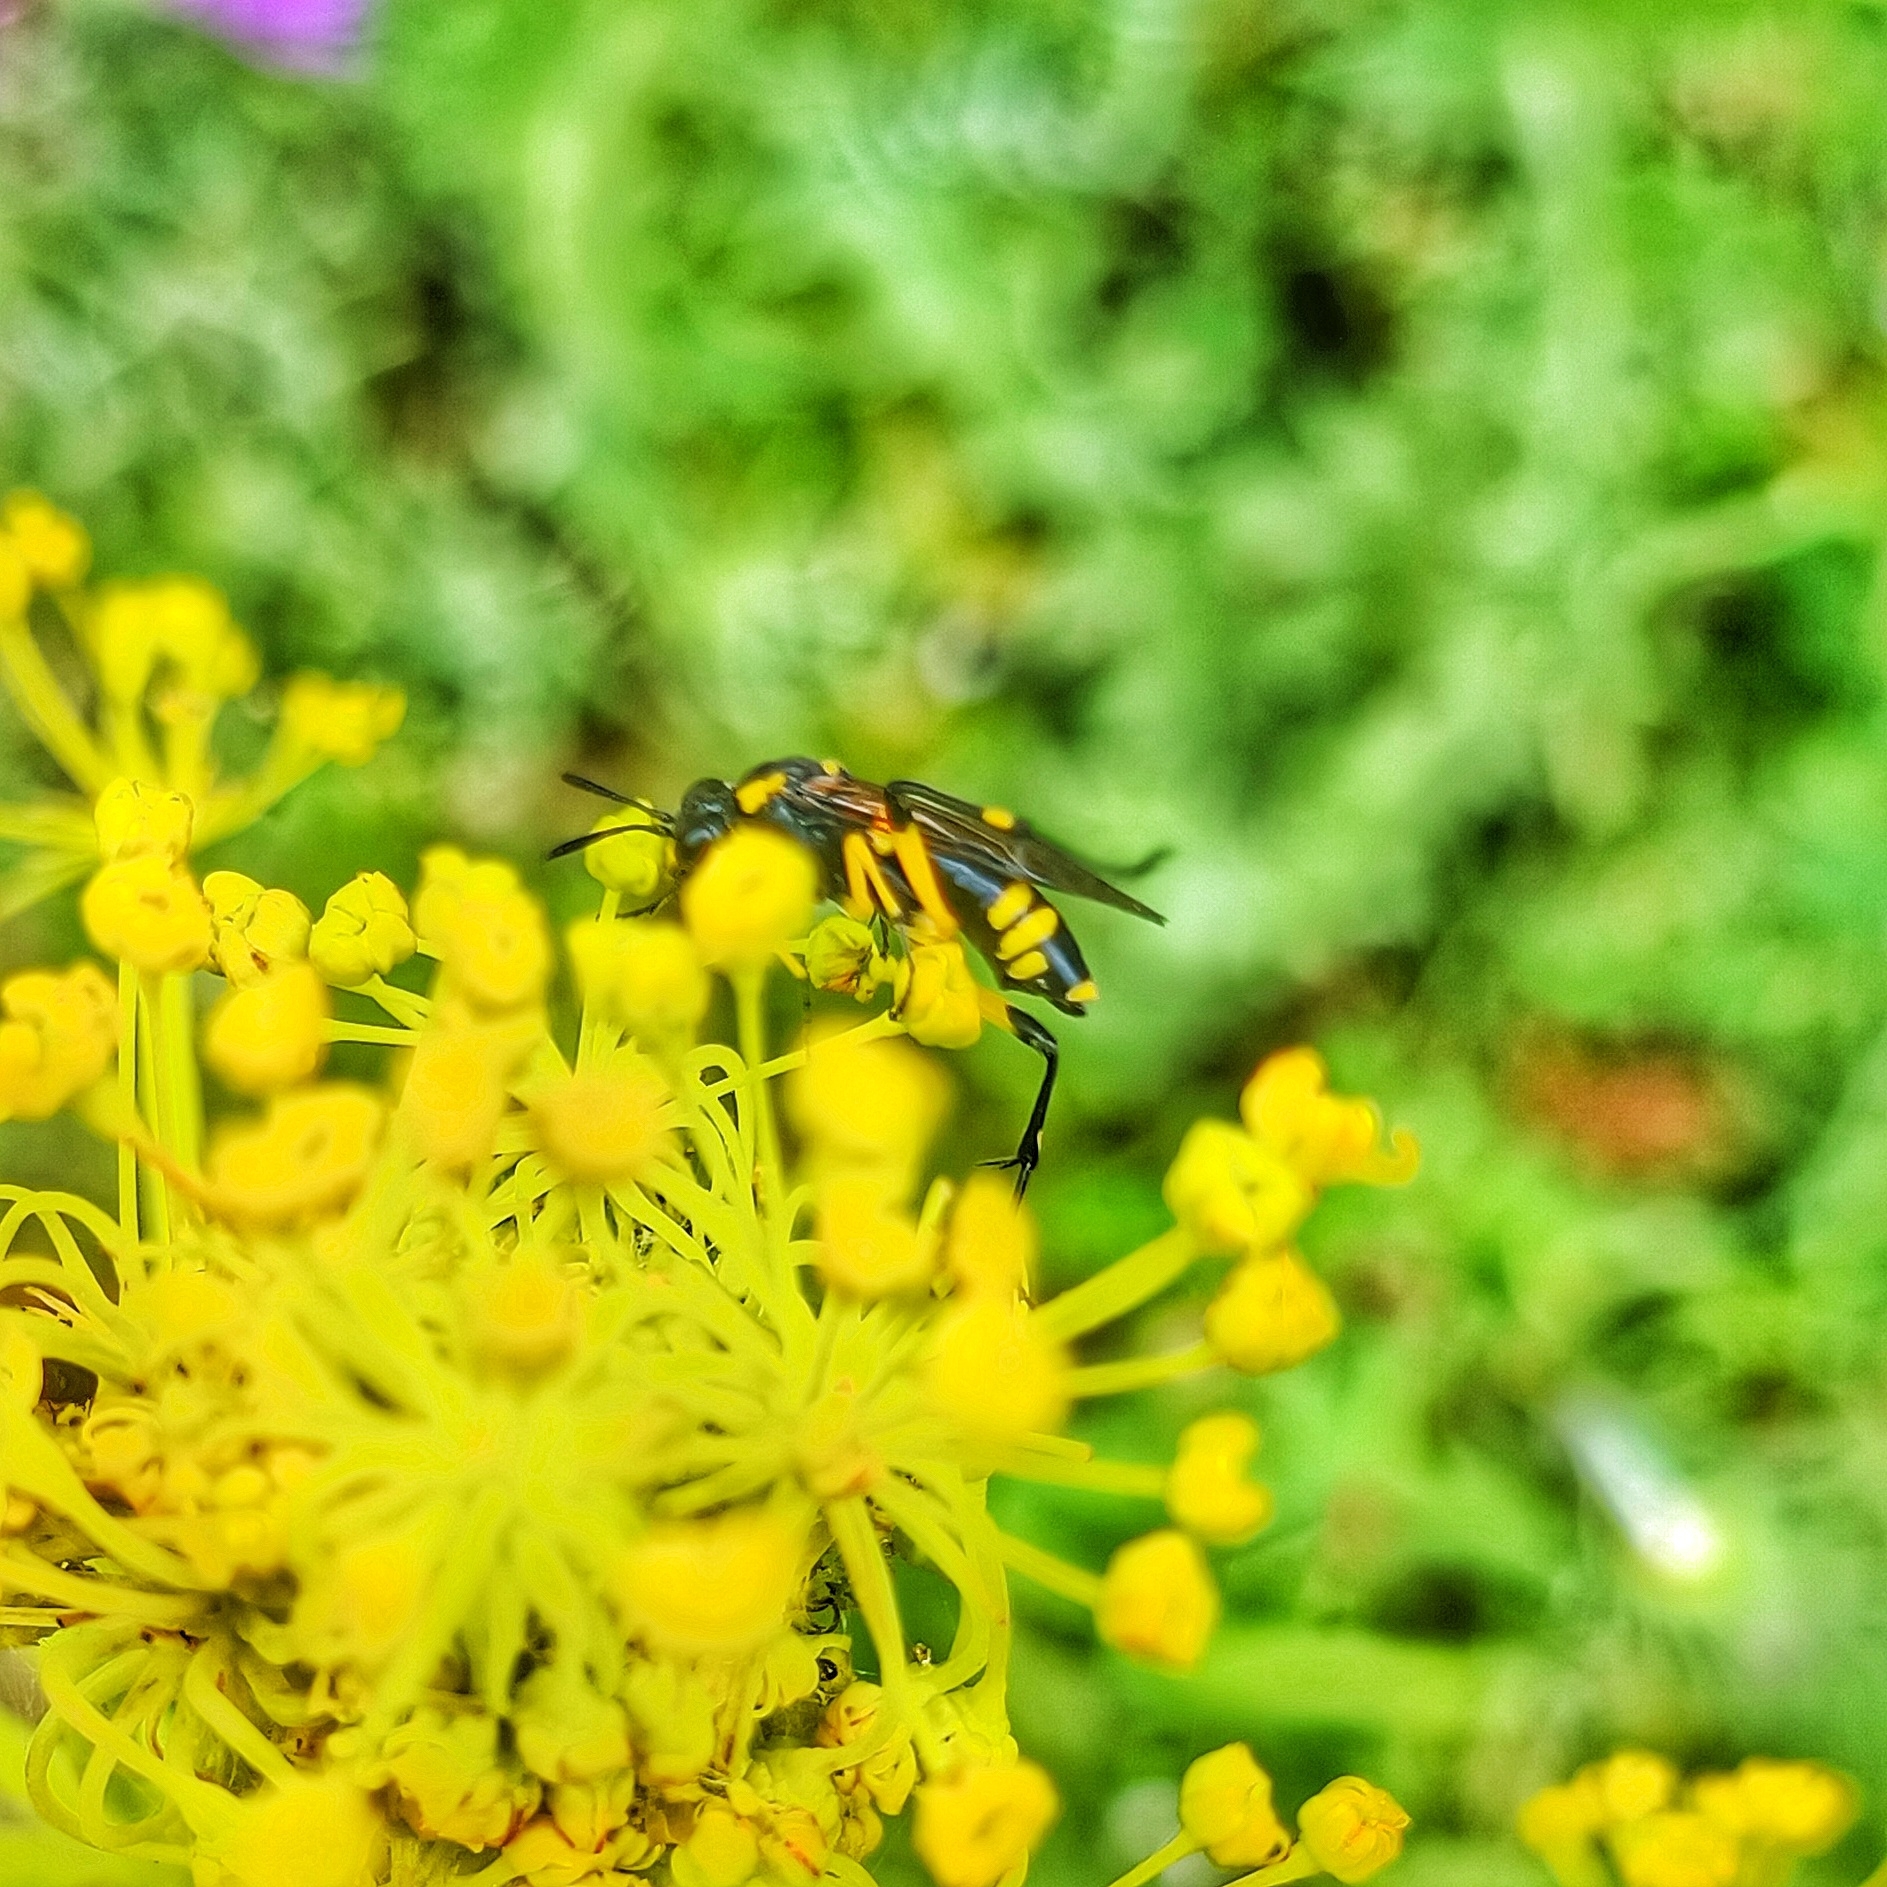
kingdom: Animalia
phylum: Arthropoda
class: Insecta
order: Hymenoptera
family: Tenthredinidae
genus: Macrophya
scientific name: Macrophya montana
